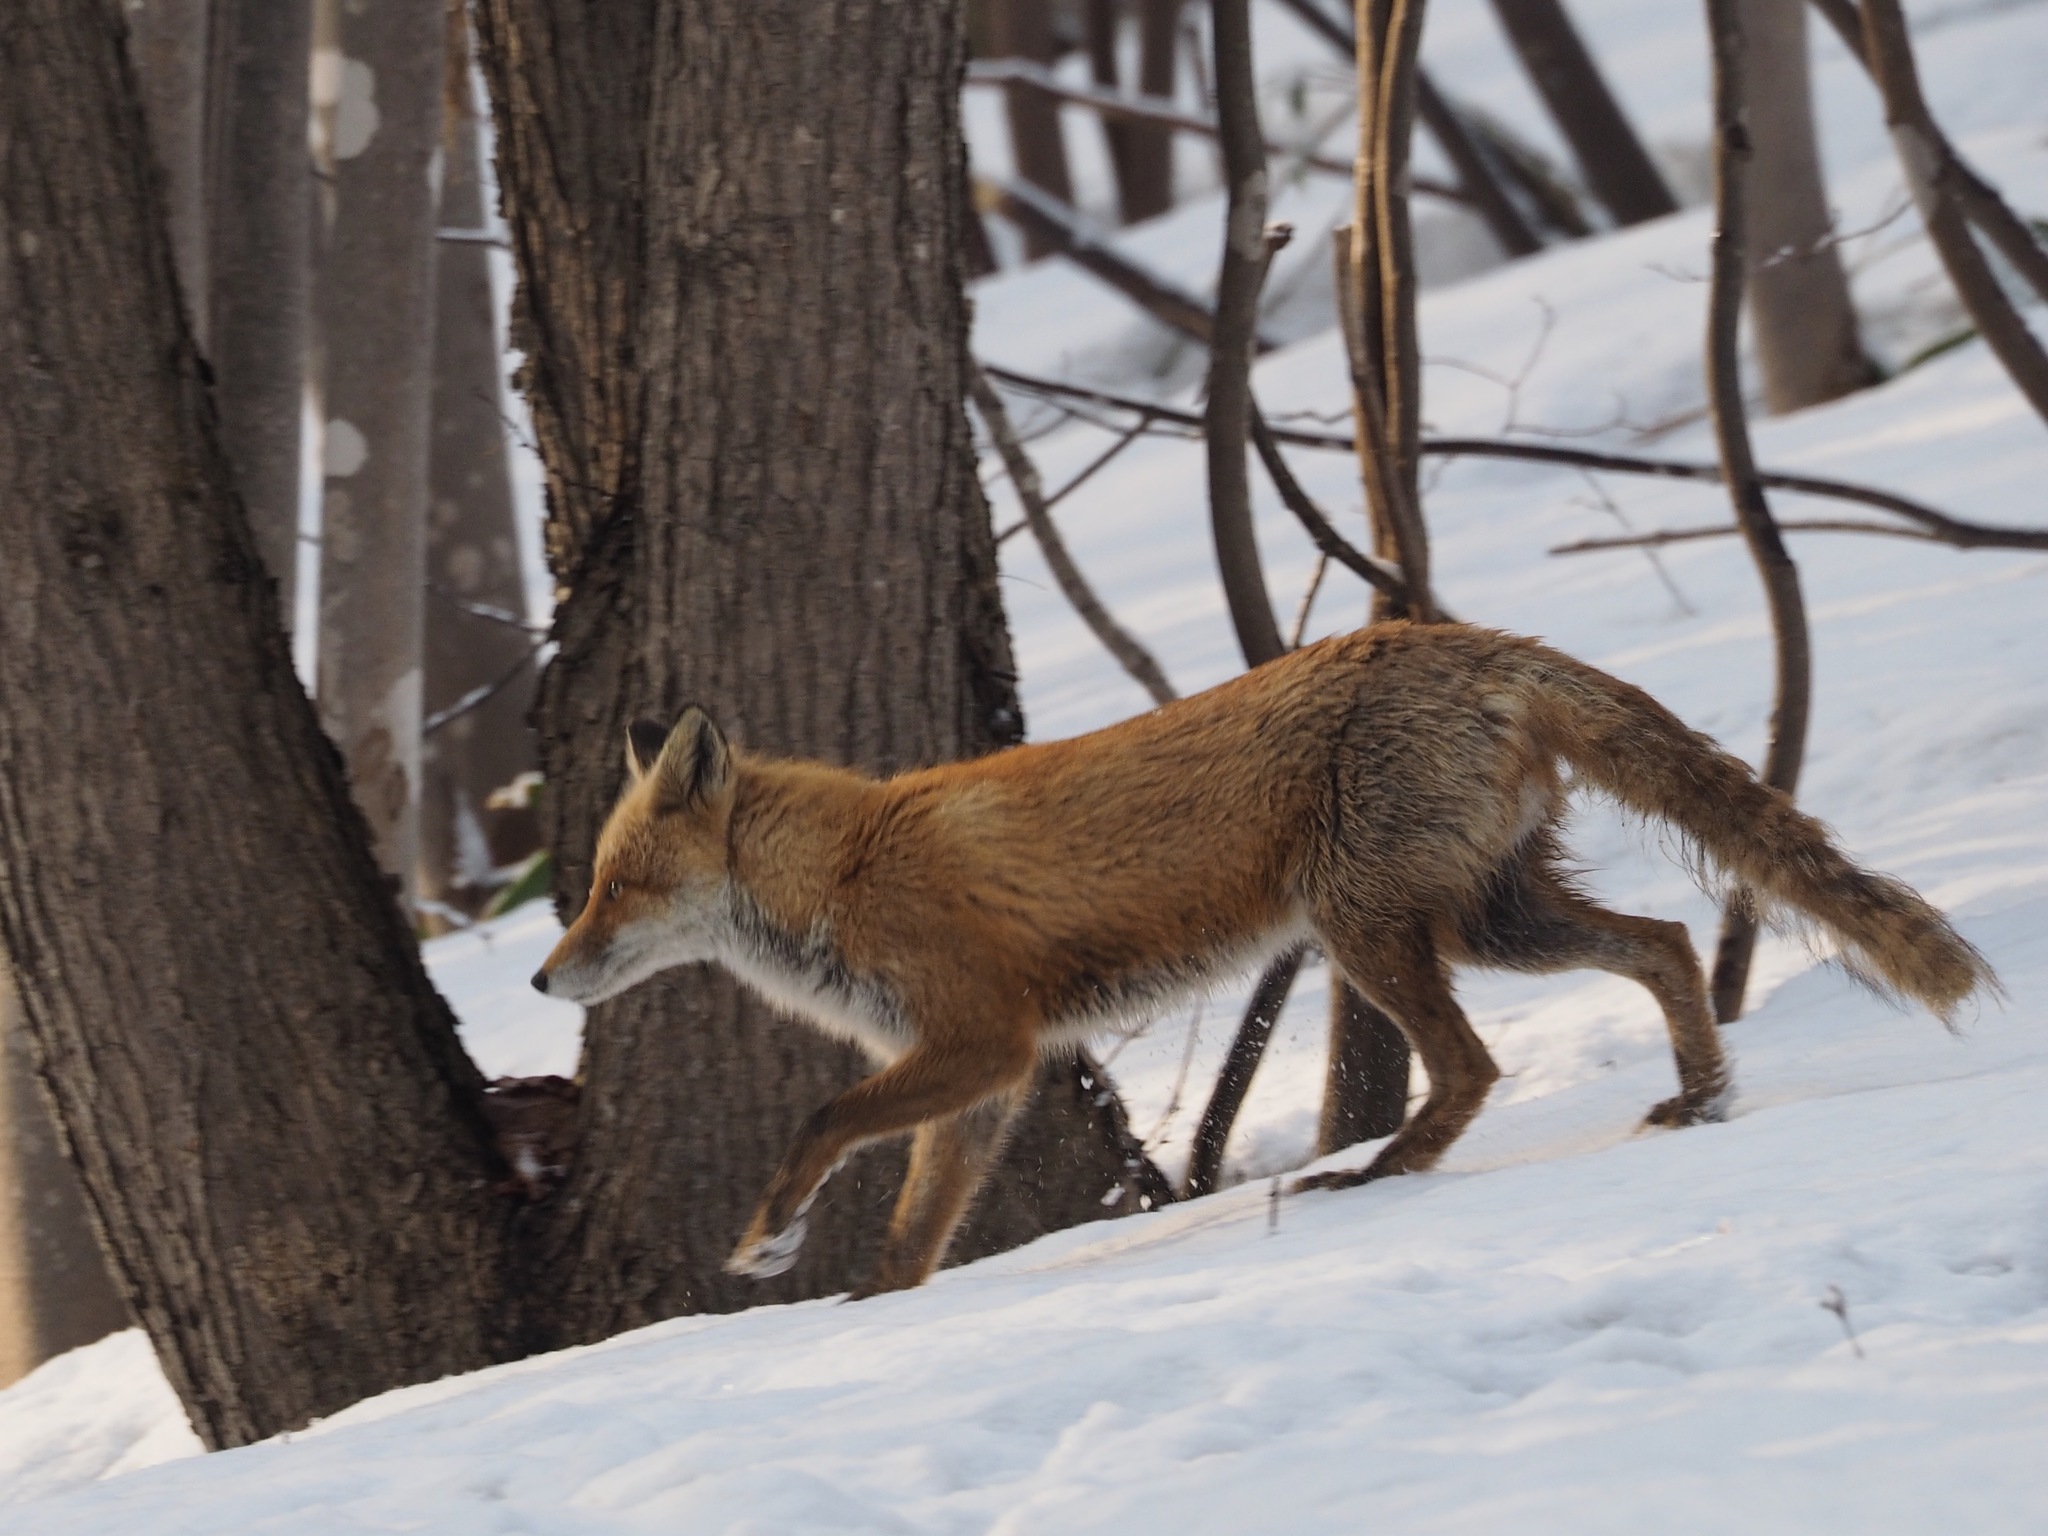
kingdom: Animalia
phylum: Chordata
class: Mammalia
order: Carnivora
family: Canidae
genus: Vulpes
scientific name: Vulpes vulpes
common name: Red fox
